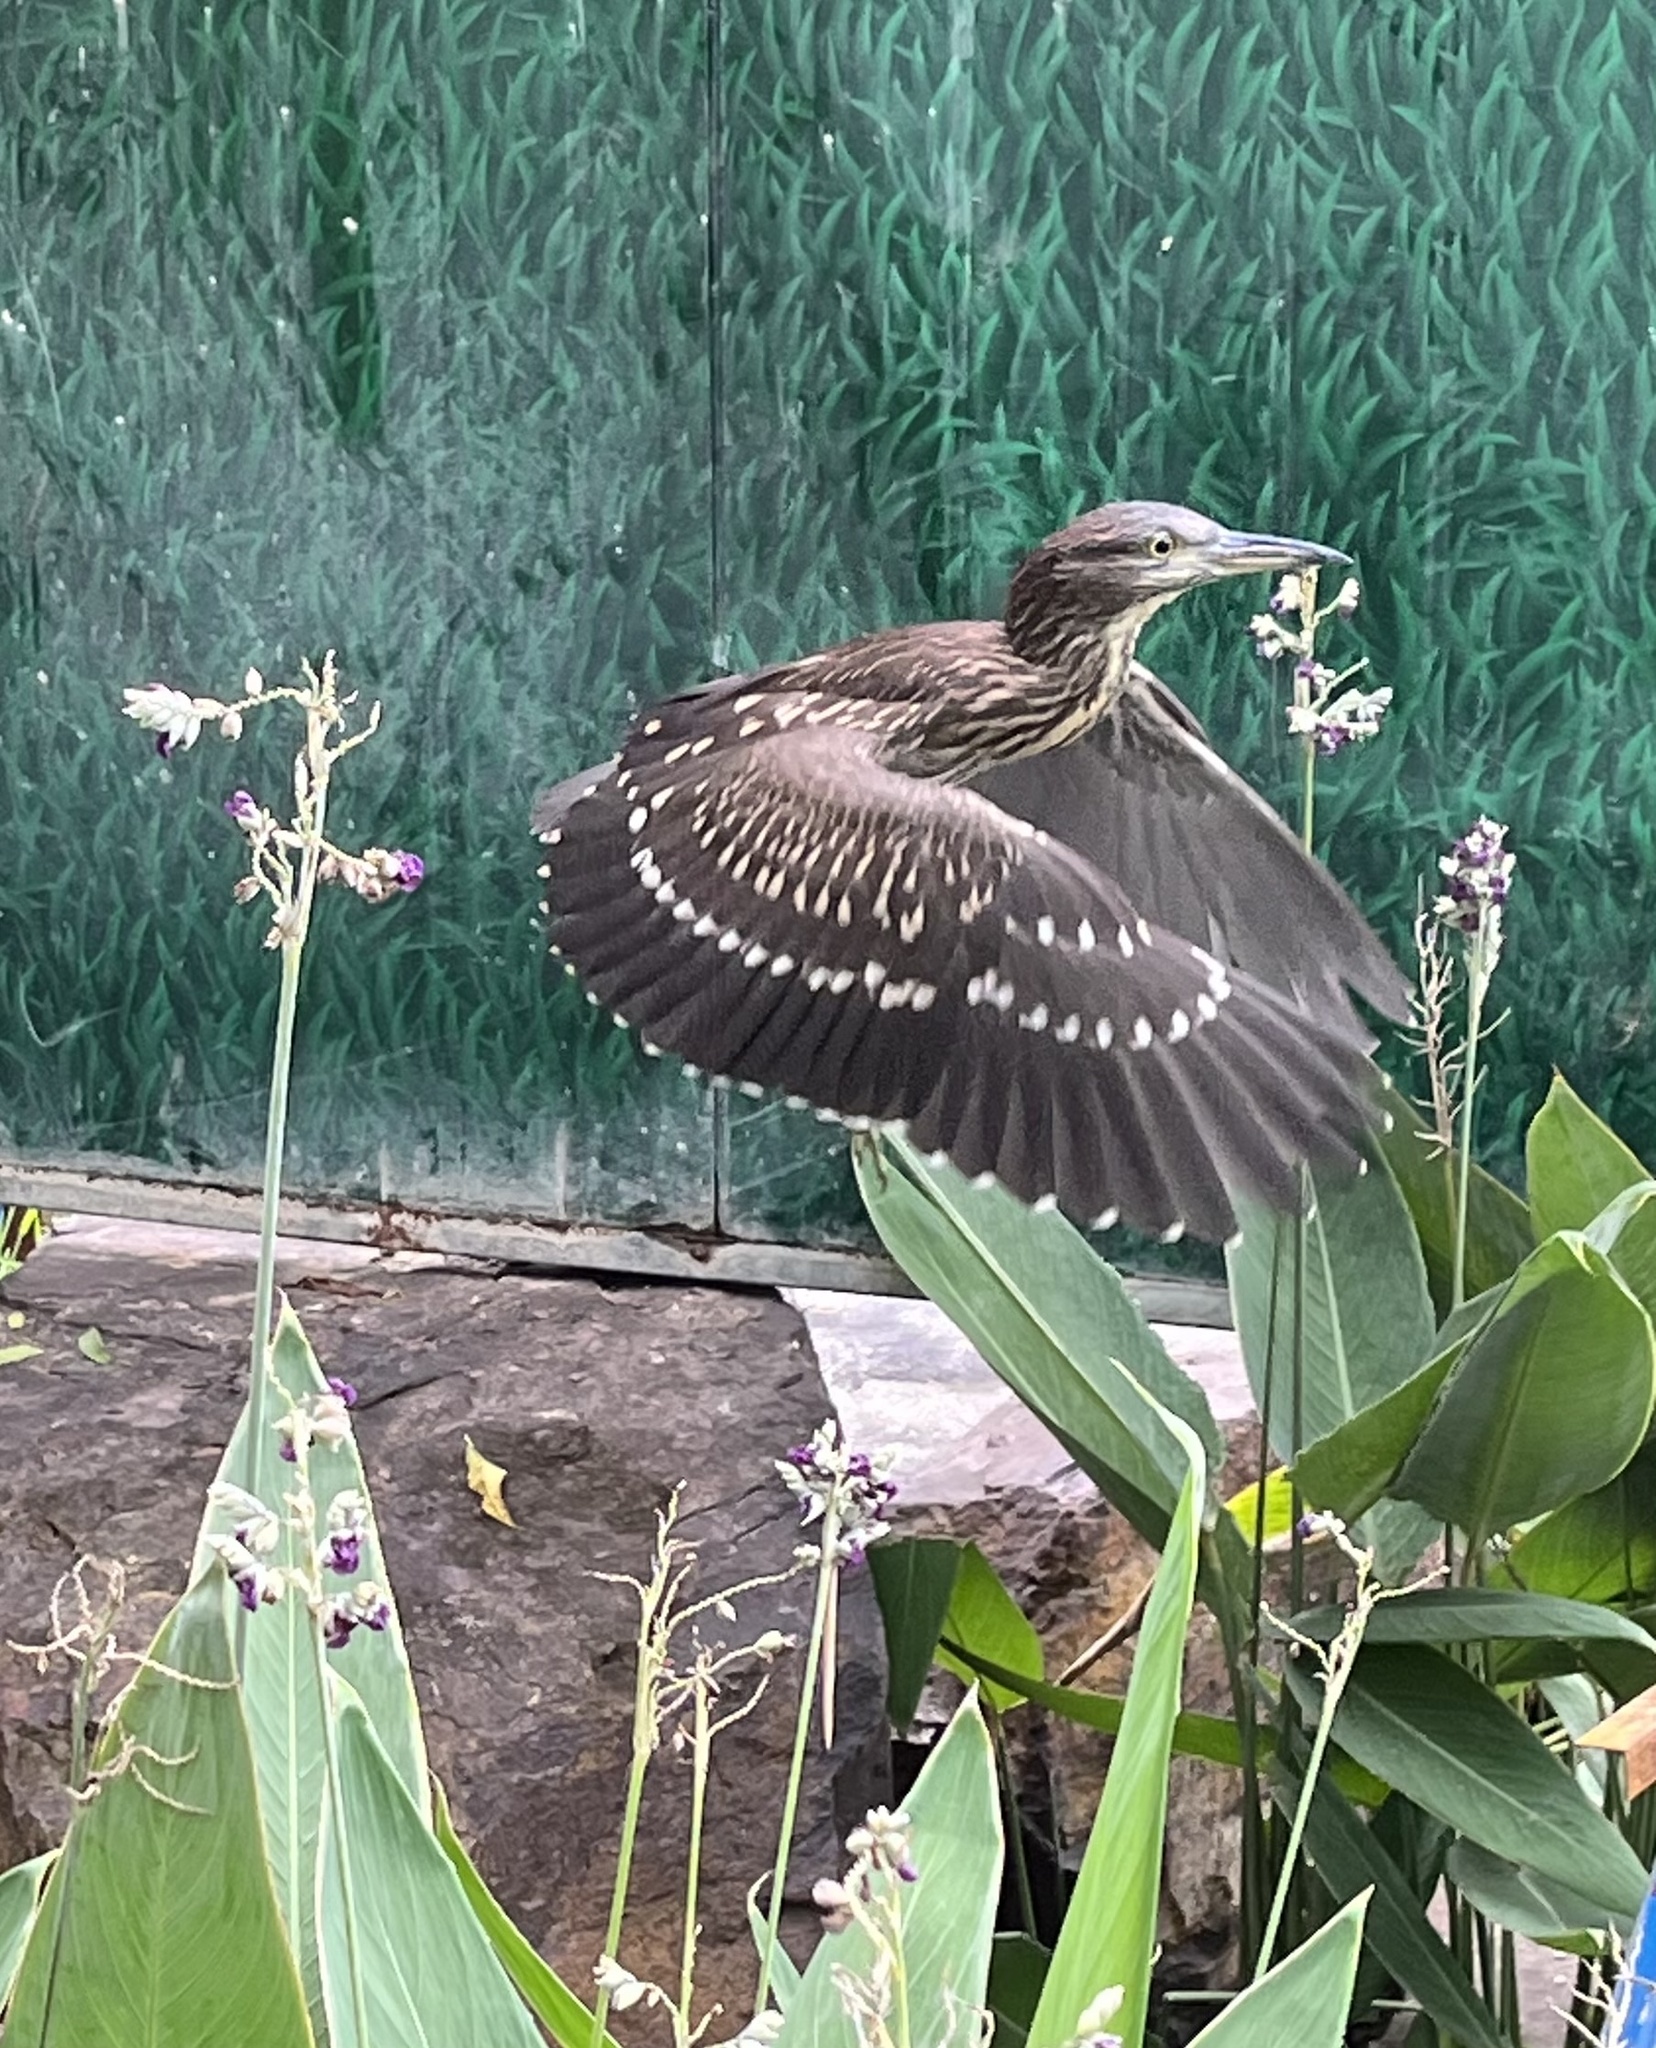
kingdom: Animalia
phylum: Chordata
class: Aves
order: Pelecaniformes
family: Ardeidae
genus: Nycticorax
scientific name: Nycticorax nycticorax
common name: Black-crowned night heron
